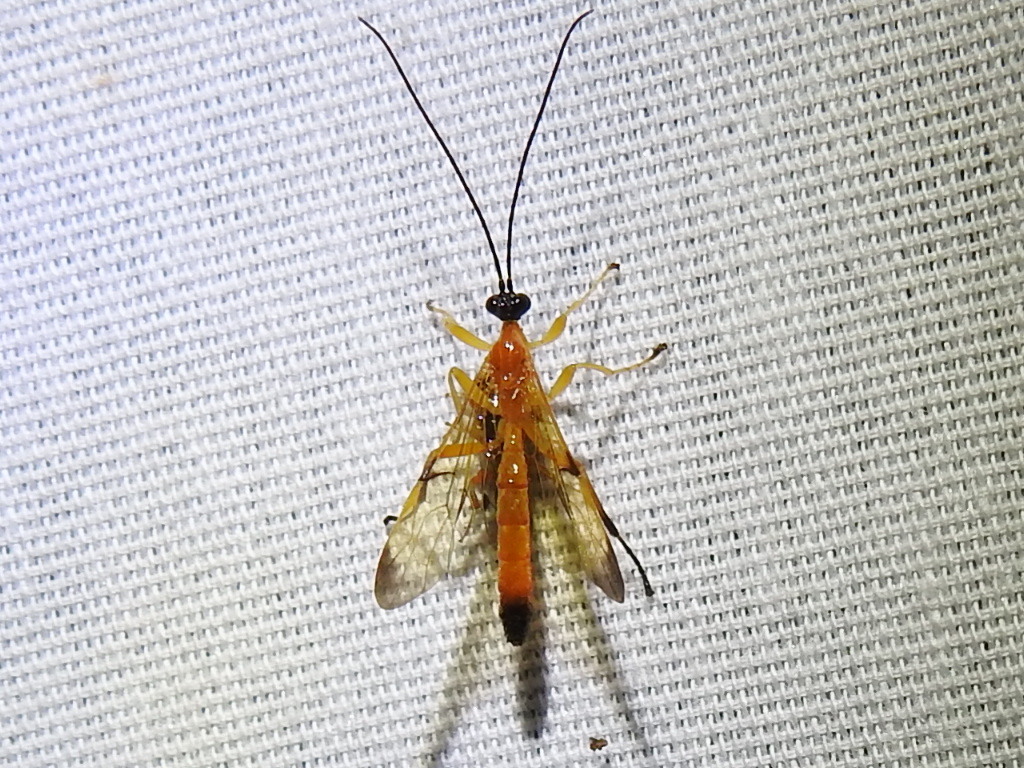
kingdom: Animalia
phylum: Arthropoda
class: Insecta
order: Hymenoptera
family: Ichneumonidae
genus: Acrotaphus
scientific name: Acrotaphus wiltii
